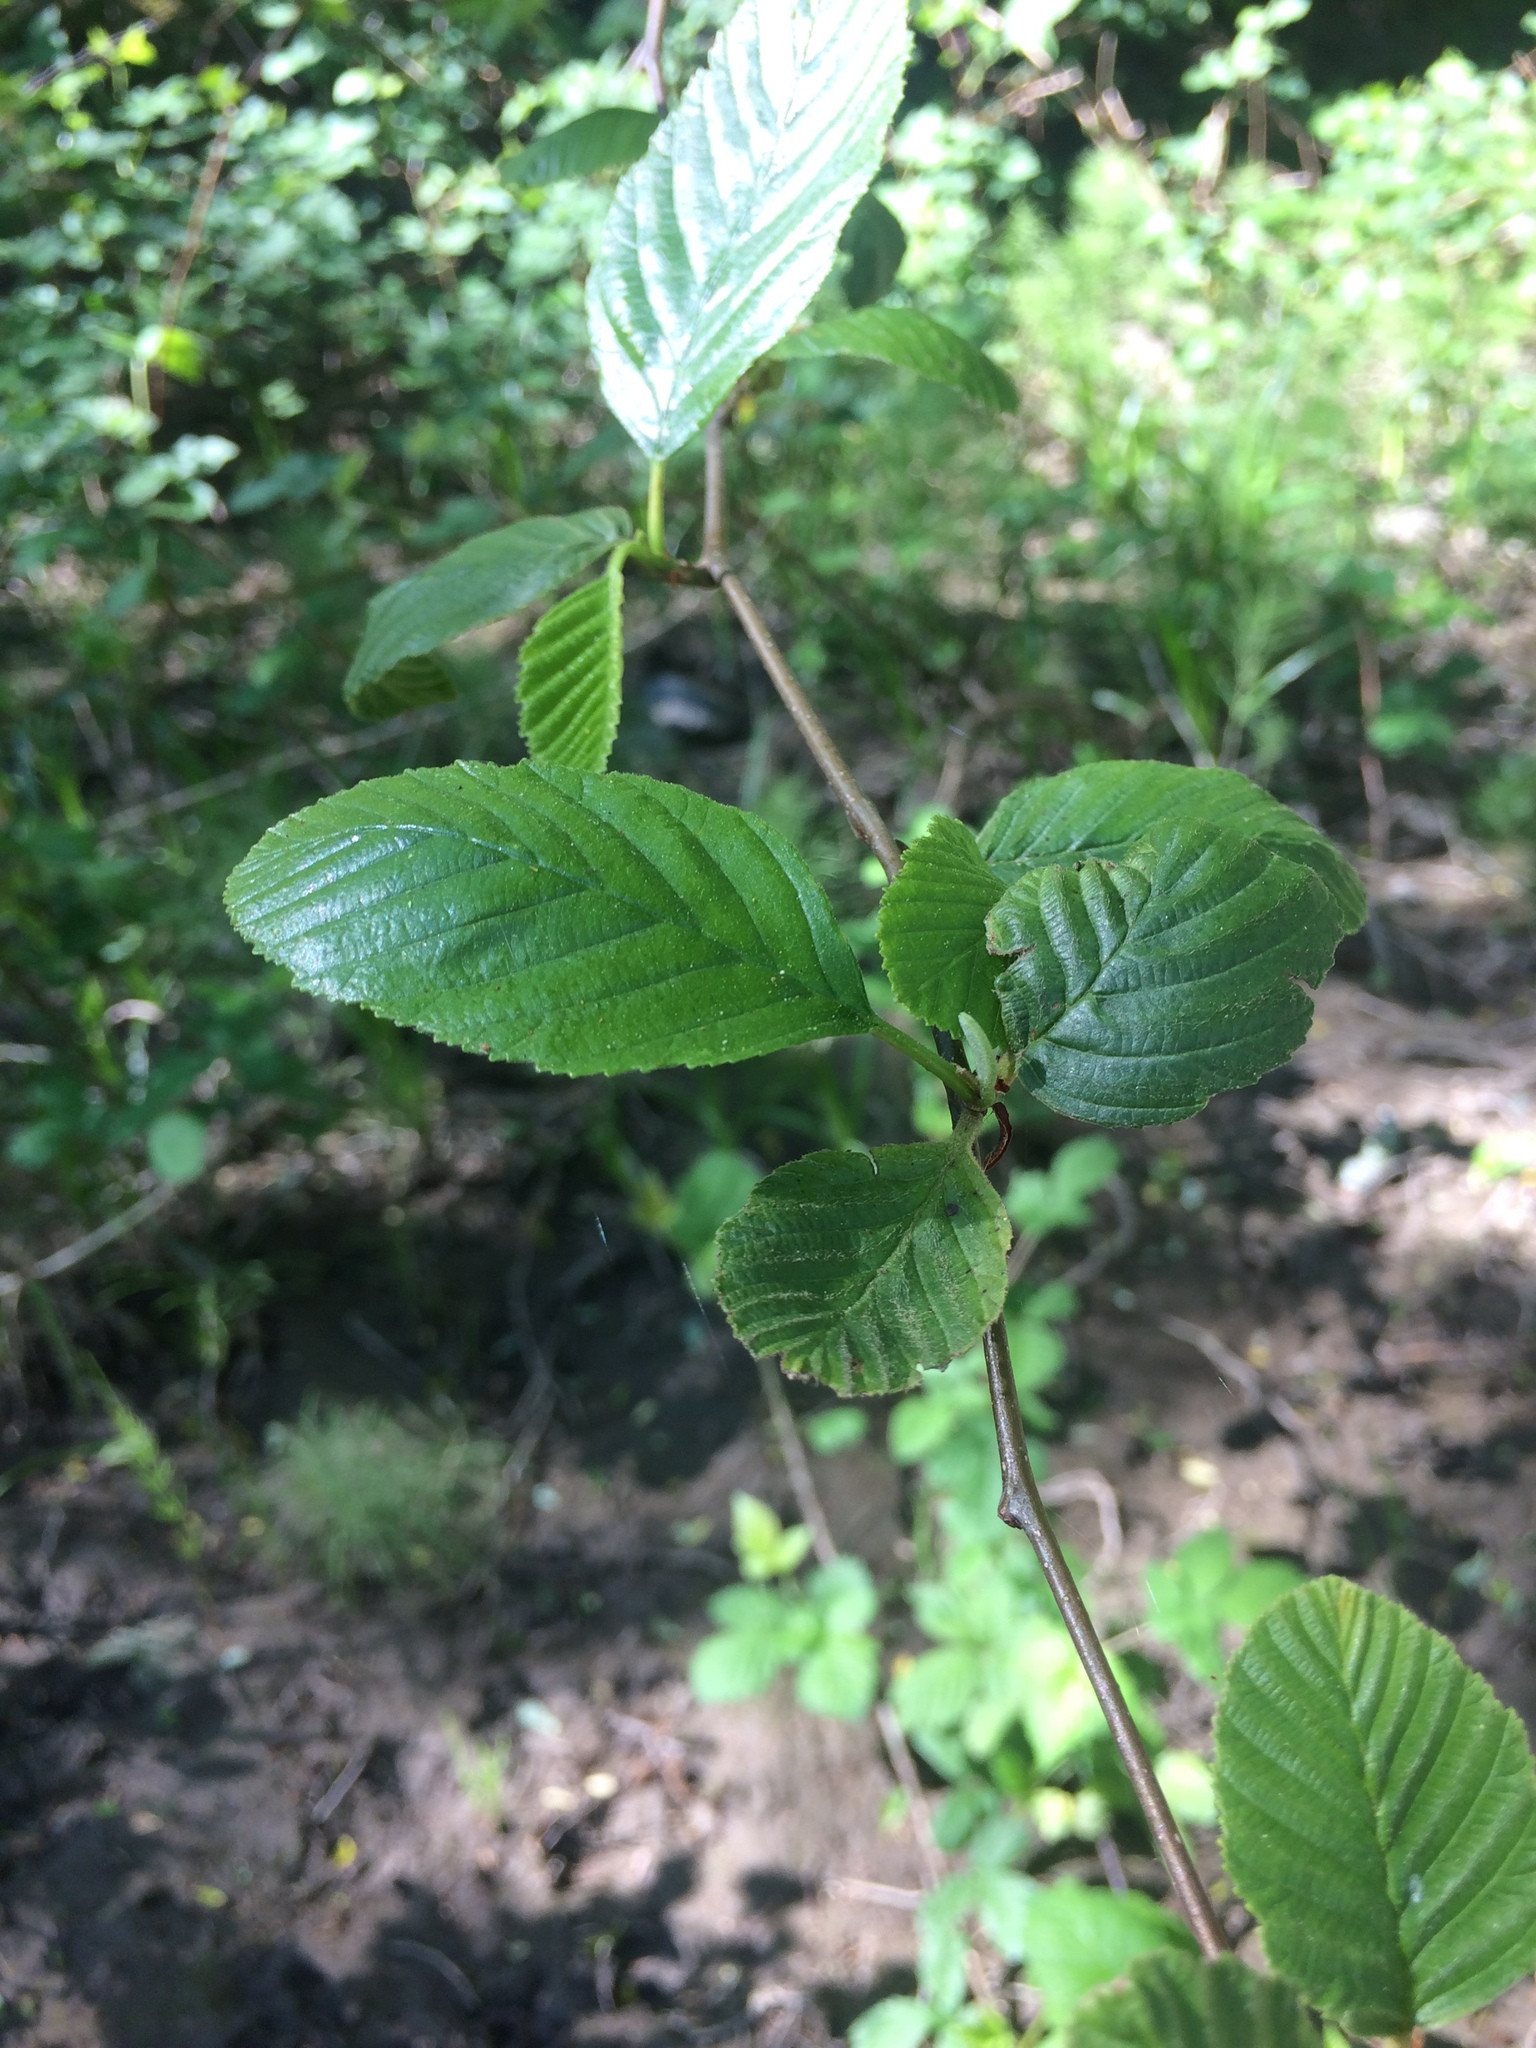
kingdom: Plantae
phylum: Tracheophyta
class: Magnoliopsida
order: Fagales
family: Betulaceae
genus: Alnus
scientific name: Alnus rhombifolia
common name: California alder
